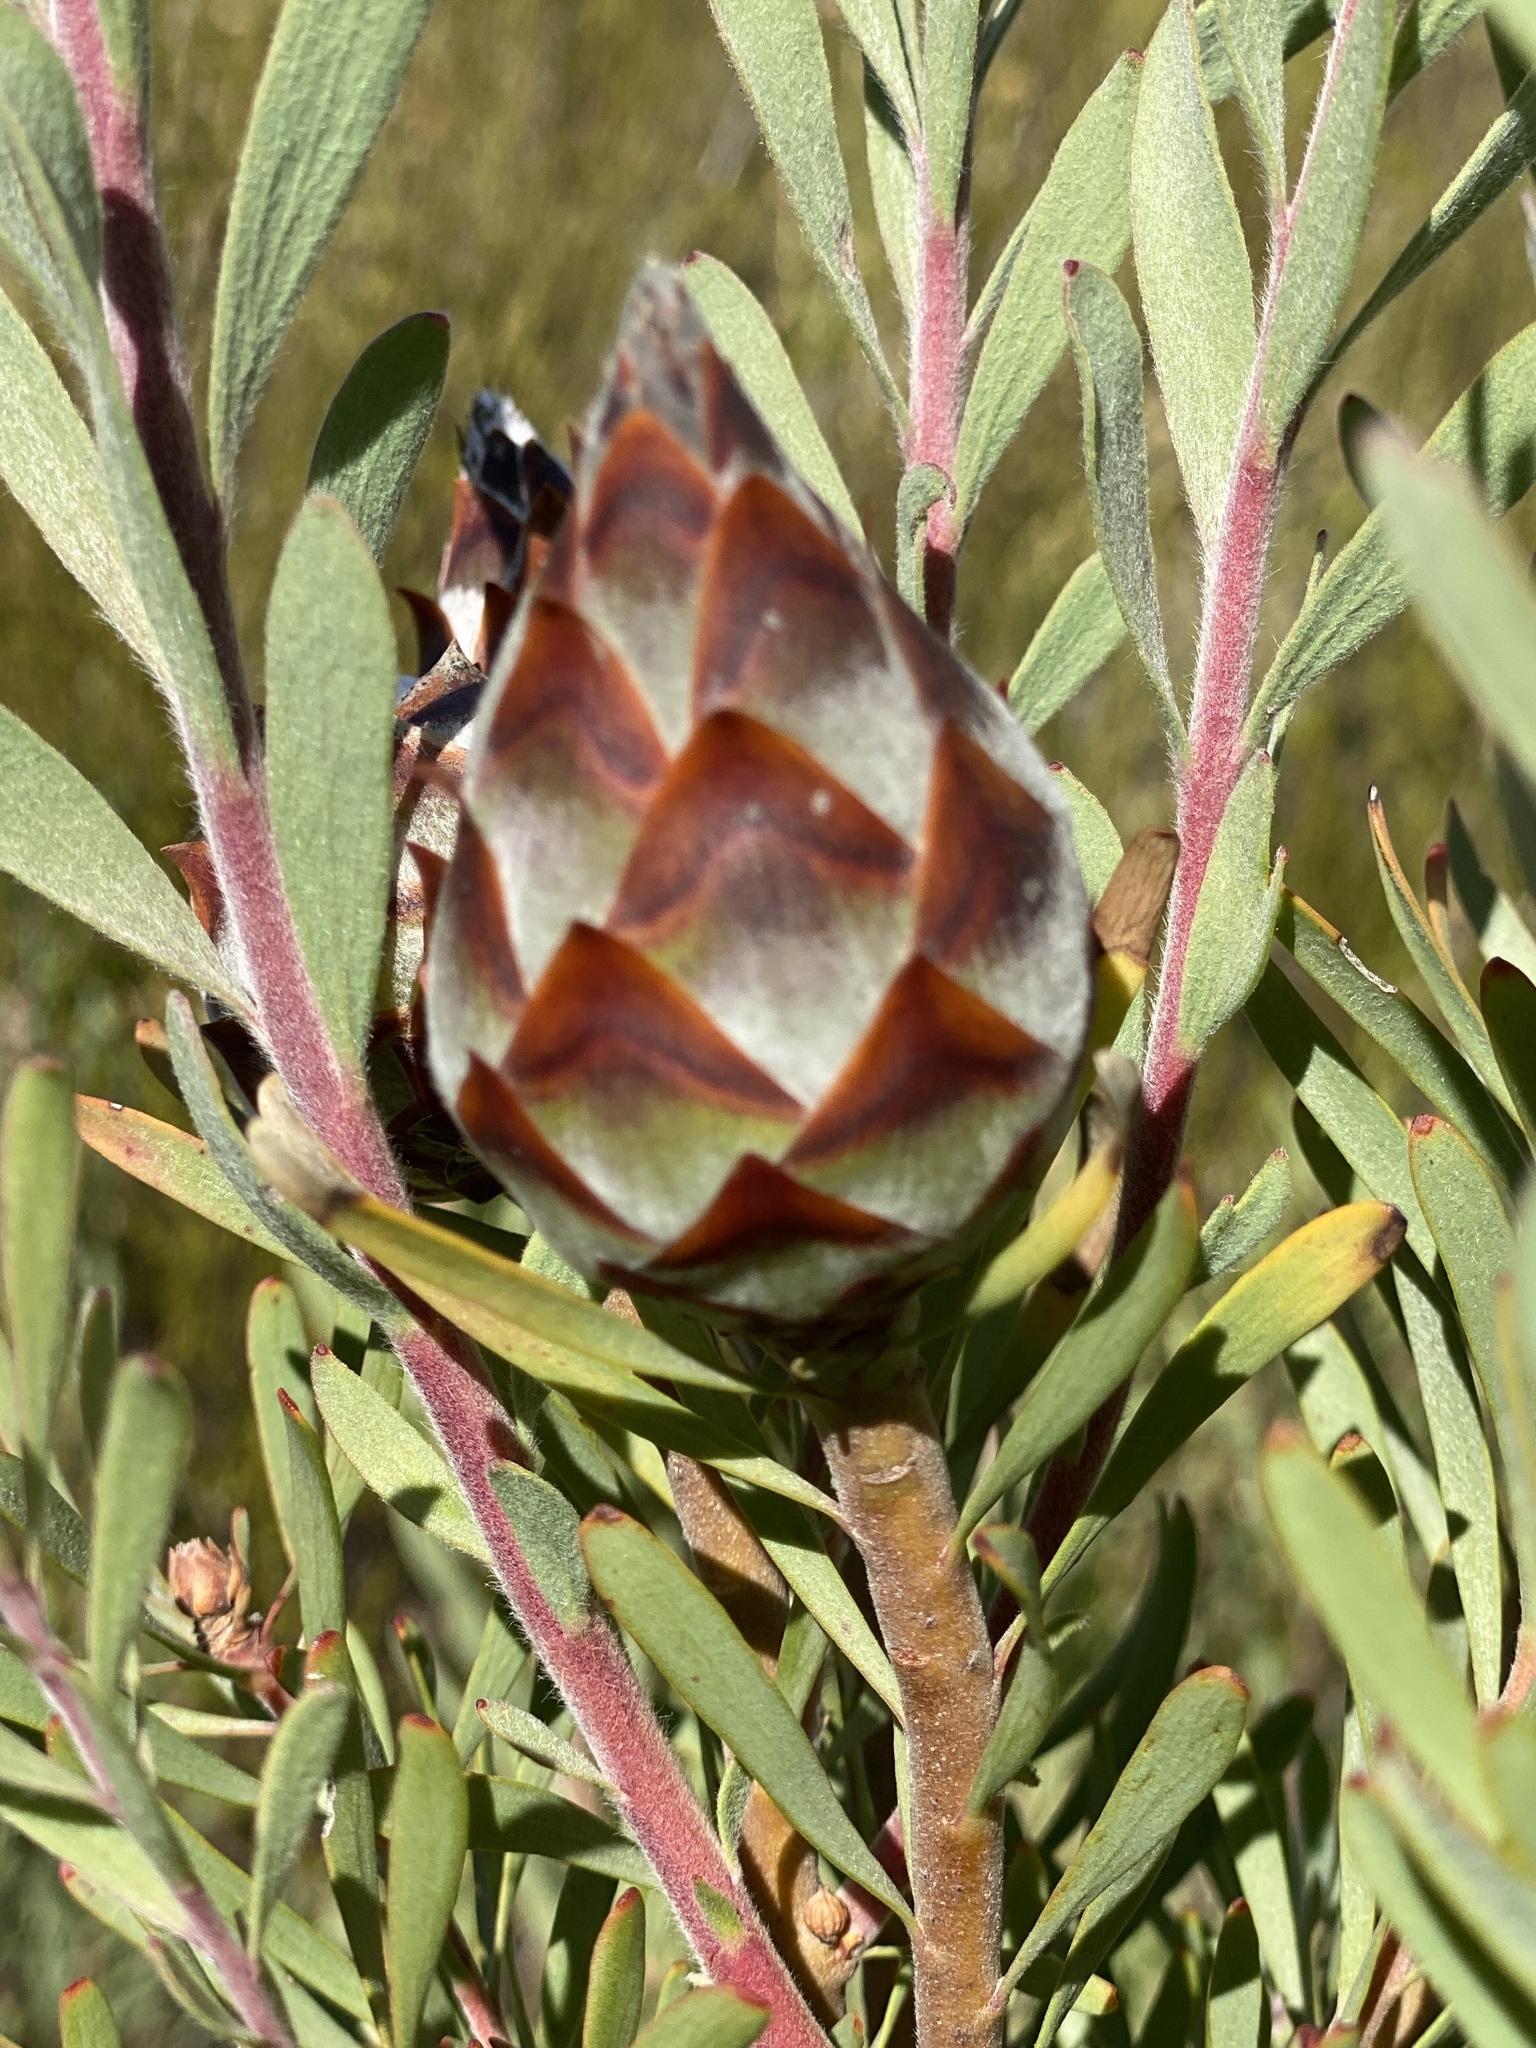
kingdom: Plantae
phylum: Tracheophyta
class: Magnoliopsida
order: Proteales
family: Proteaceae
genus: Leucadendron
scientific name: Leucadendron rubrum
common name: Spinning top
